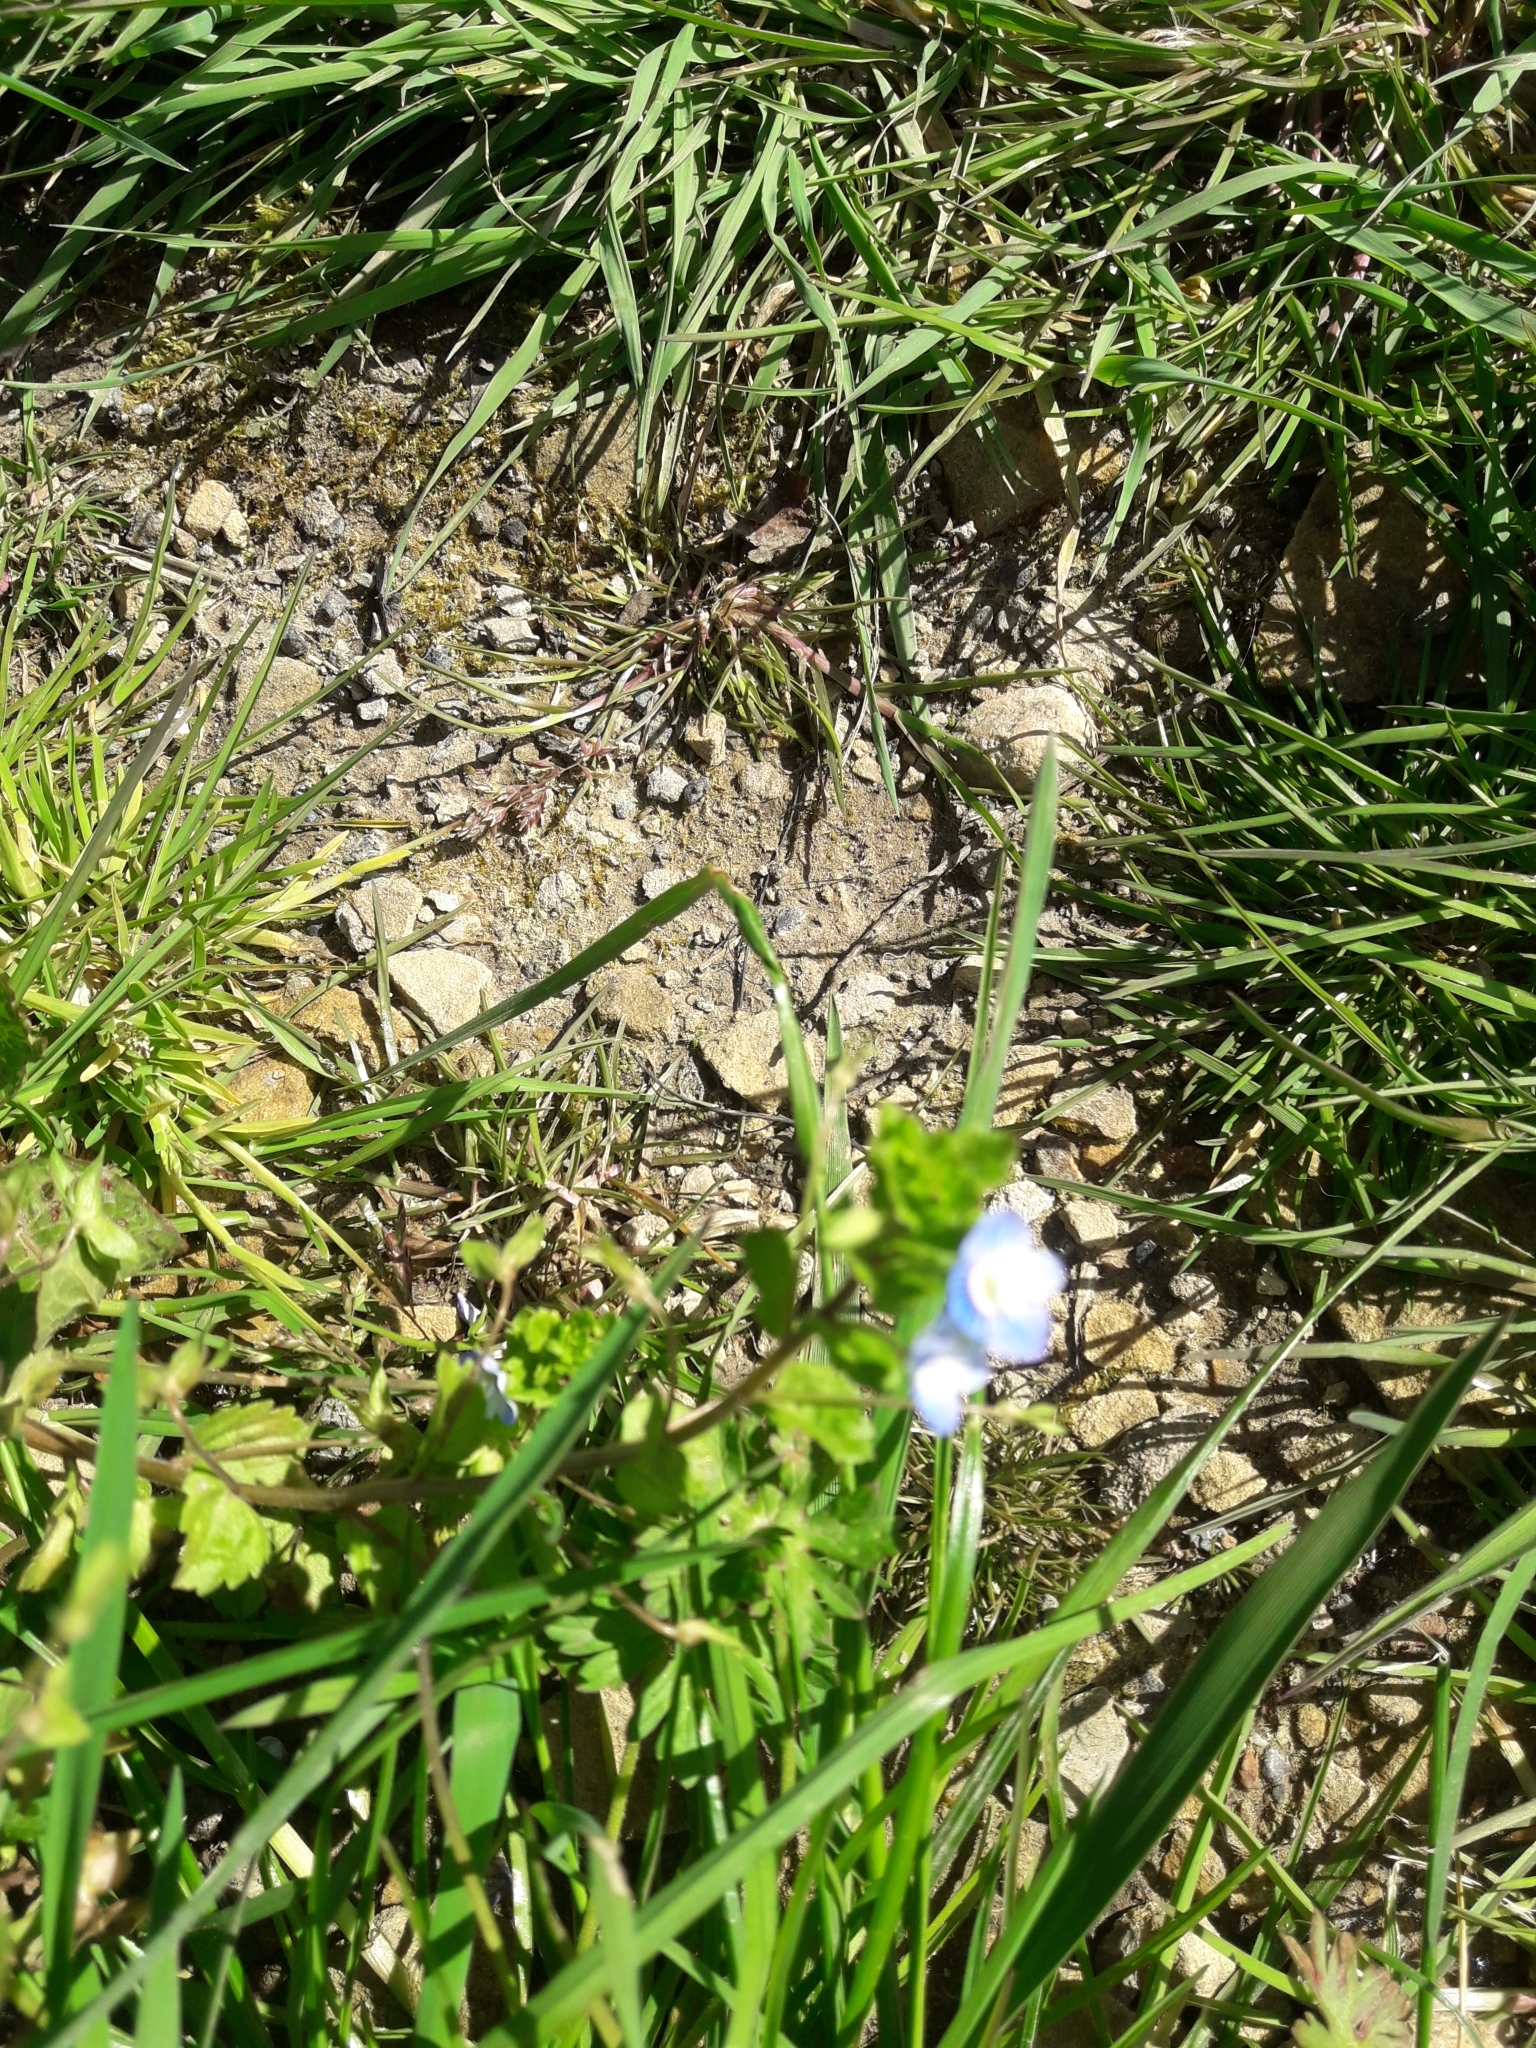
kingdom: Plantae
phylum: Tracheophyta
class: Magnoliopsida
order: Lamiales
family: Plantaginaceae
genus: Veronica
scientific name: Veronica persica
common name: Common field-speedwell
